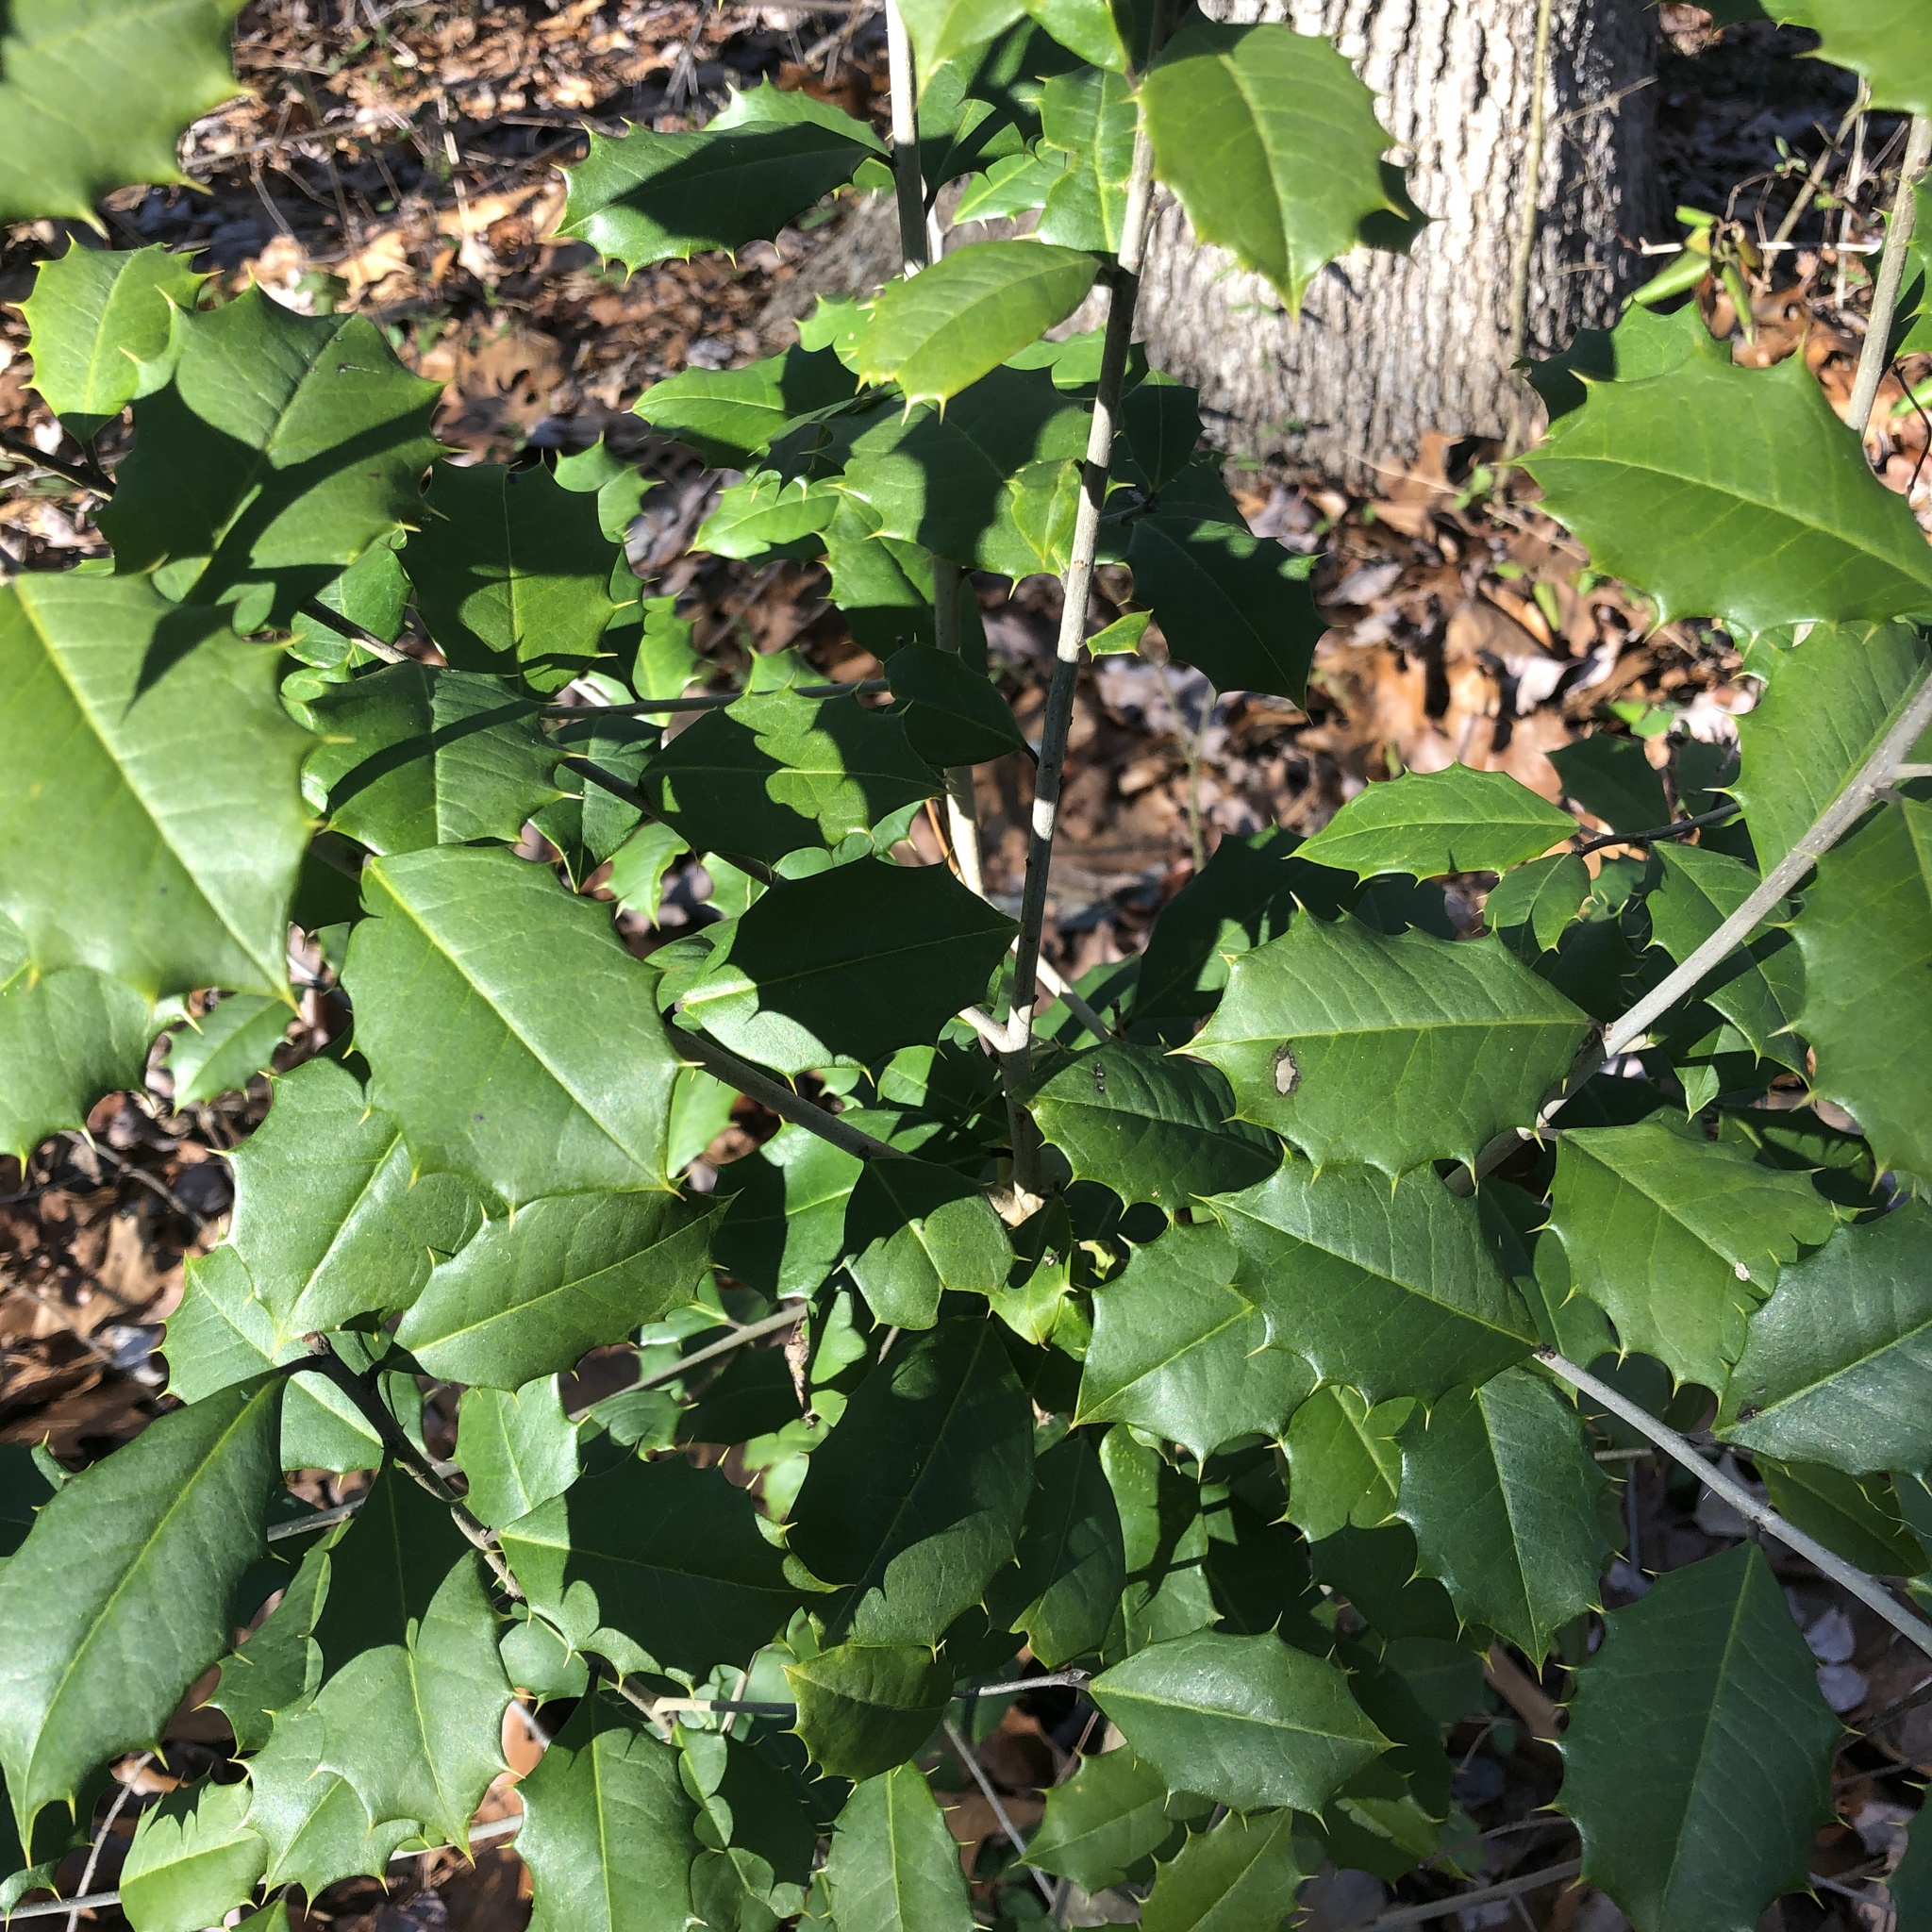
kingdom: Plantae
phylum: Tracheophyta
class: Magnoliopsida
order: Aquifoliales
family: Aquifoliaceae
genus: Ilex
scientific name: Ilex opaca
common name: American holly
